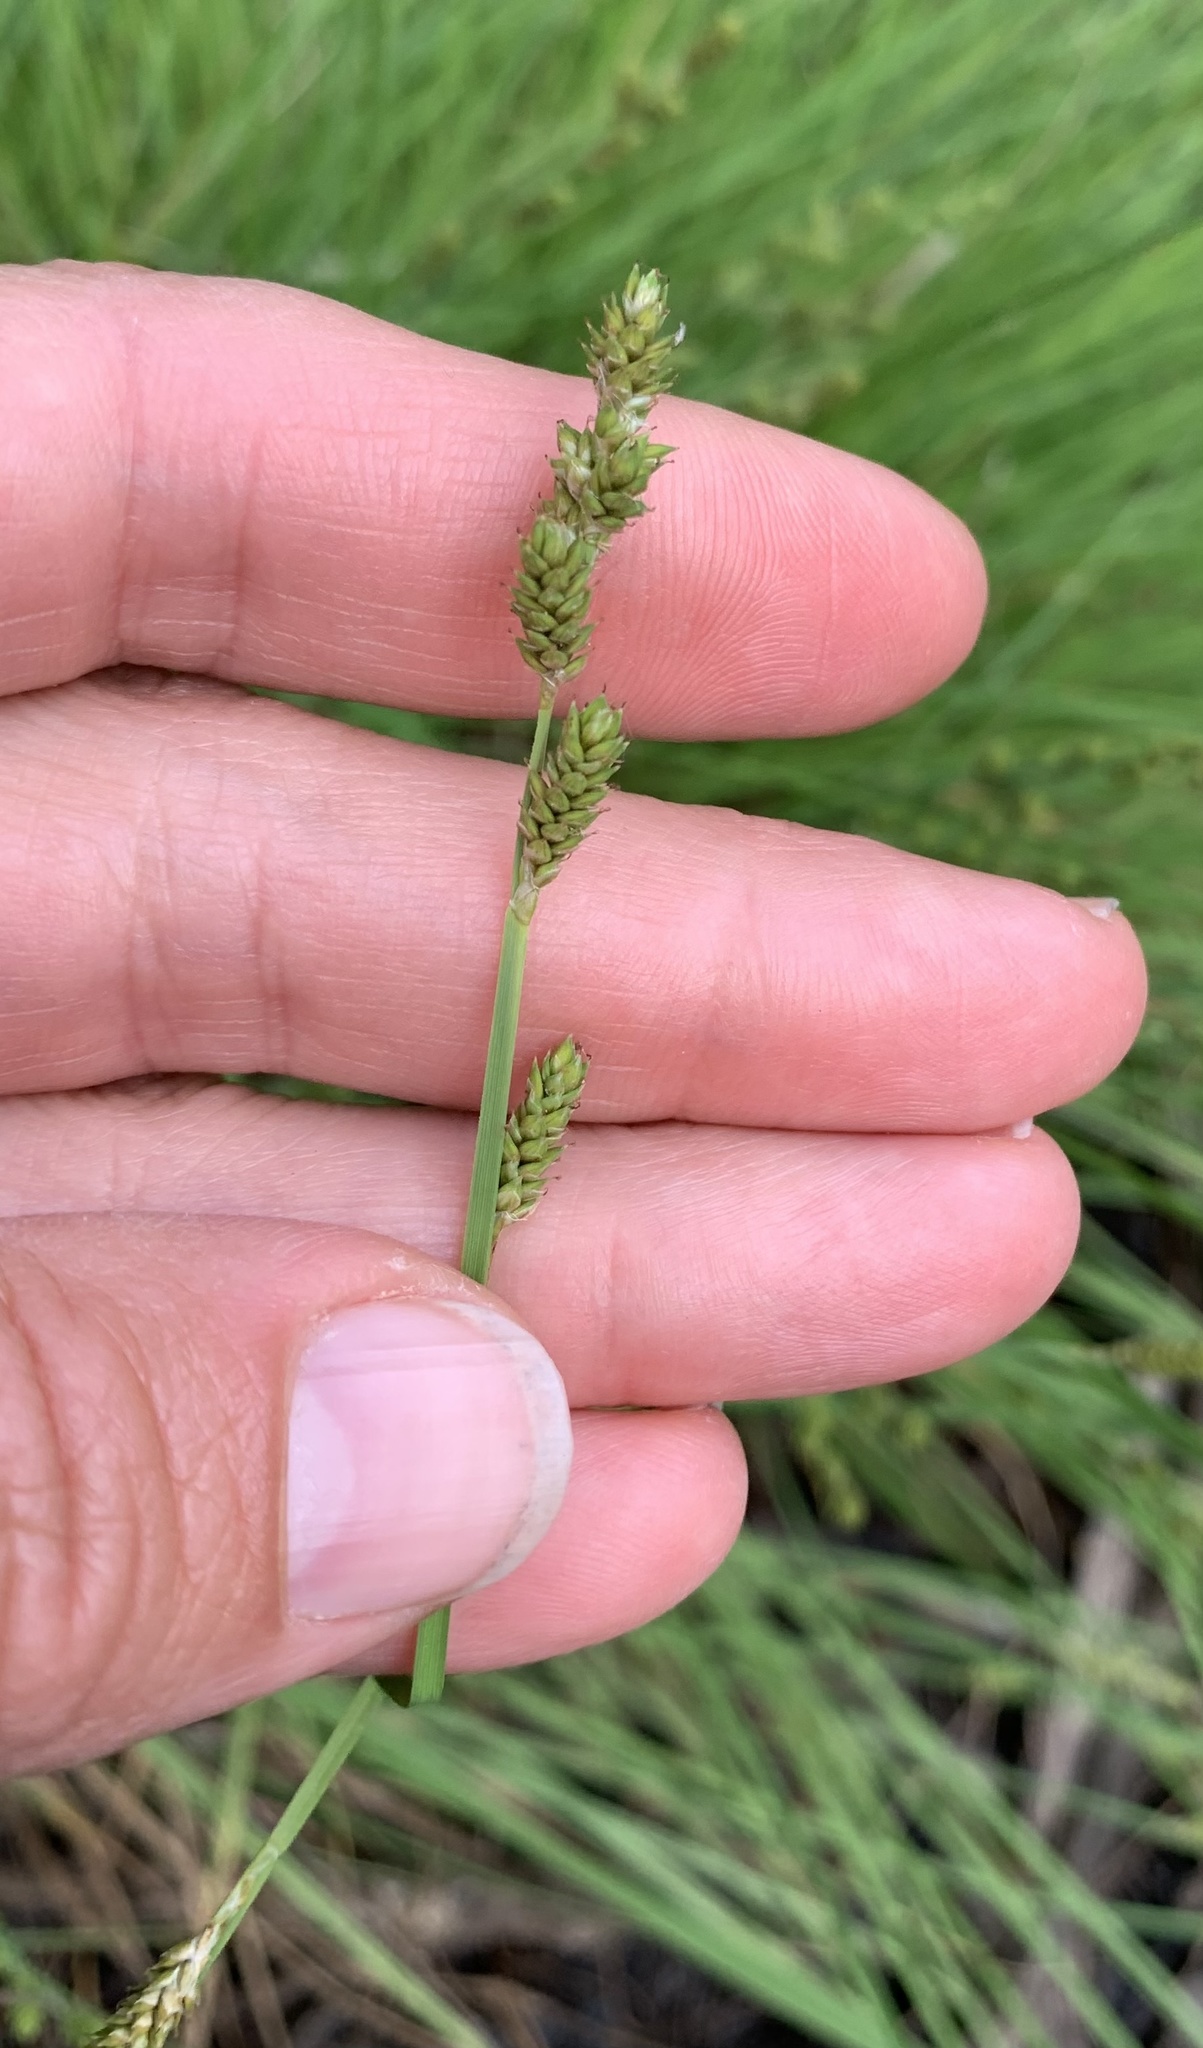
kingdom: Plantae
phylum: Tracheophyta
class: Liliopsida
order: Poales
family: Cyperaceae
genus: Carex
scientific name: Carex canescens
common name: White sedge
